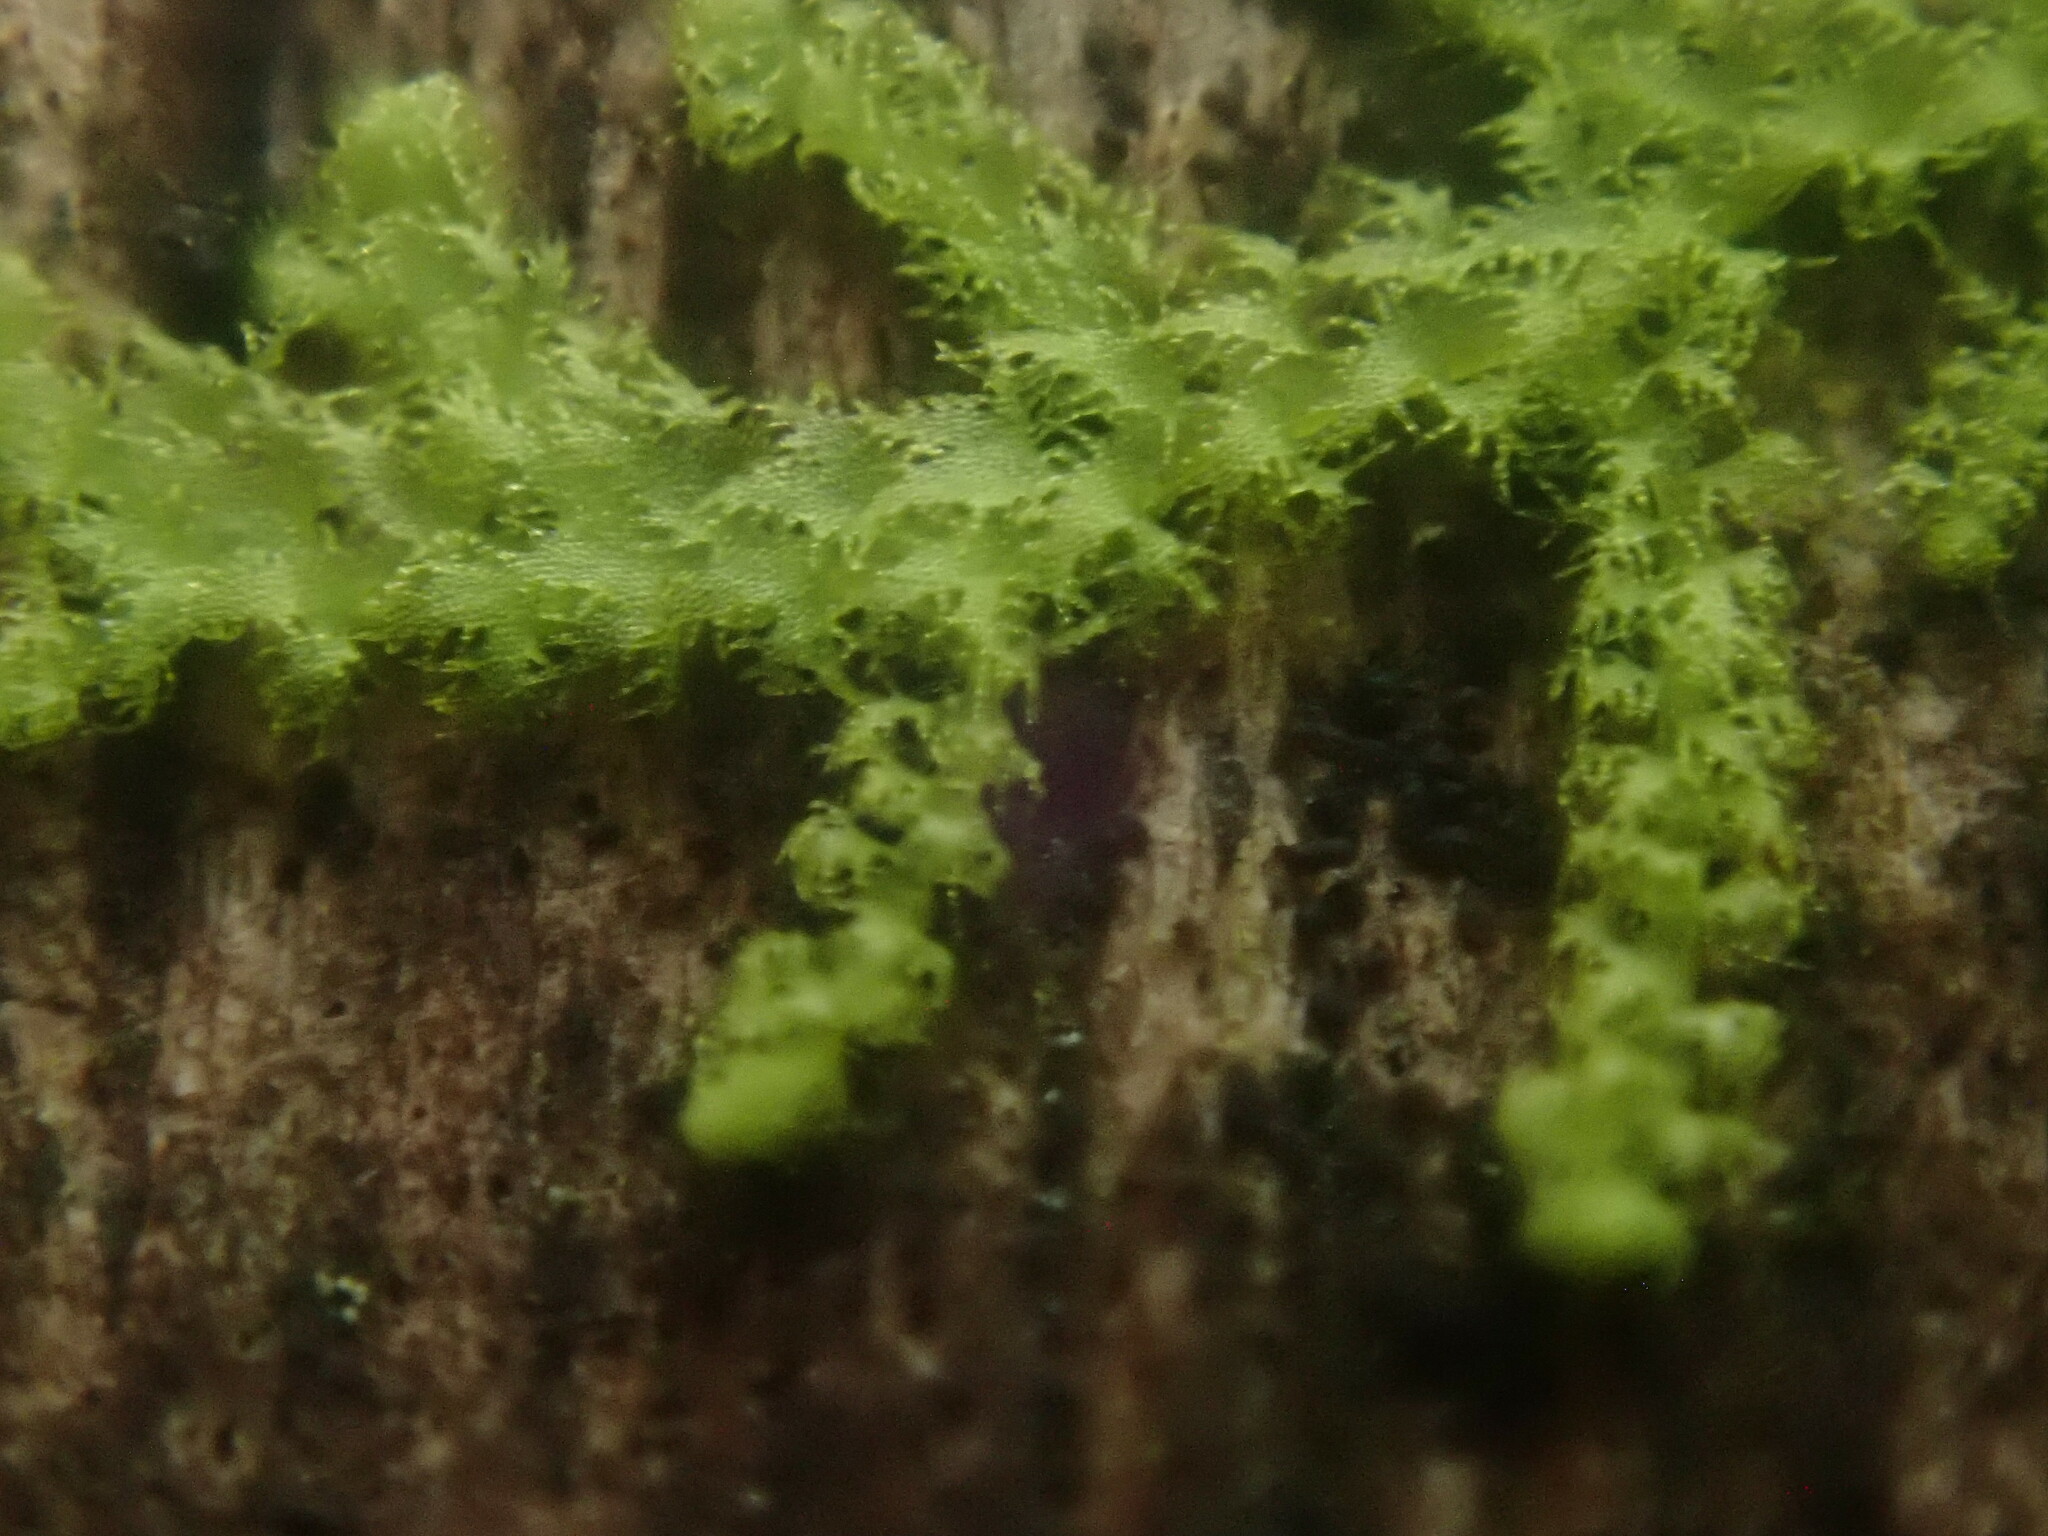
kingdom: Plantae
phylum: Marchantiophyta
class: Jungermanniopsida
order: Ptilidiales
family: Ptilidiaceae
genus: Ptilidium
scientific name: Ptilidium pulcherrimum
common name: Tree fringewort
